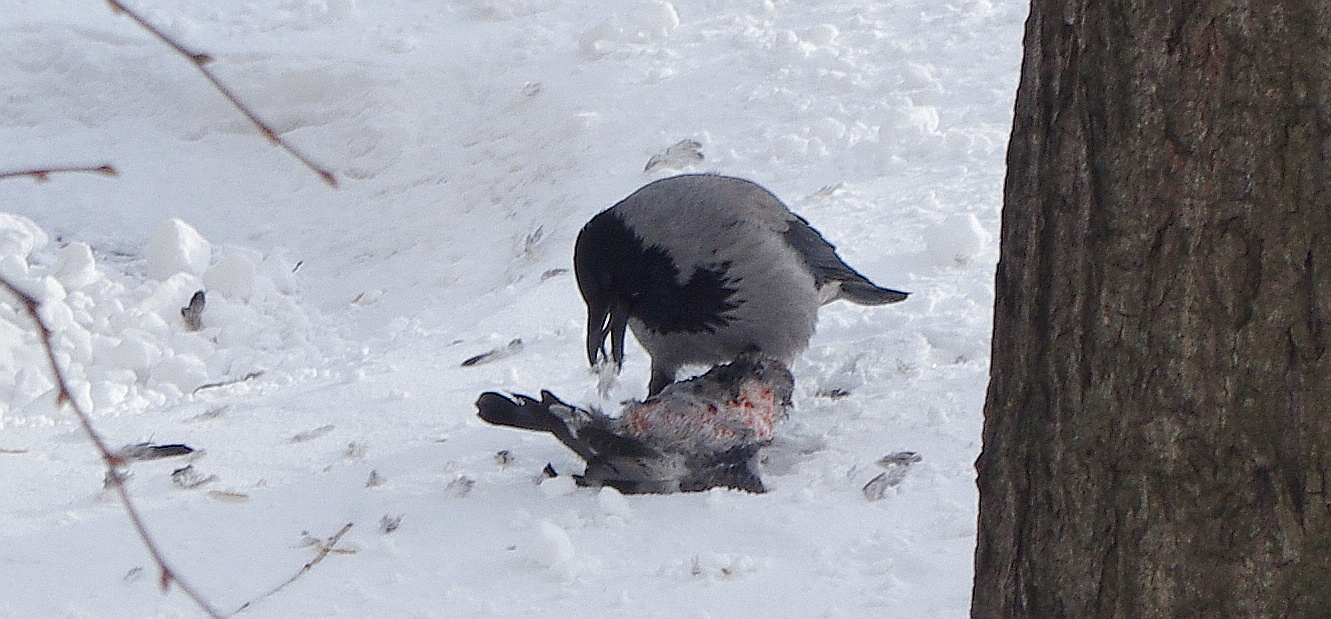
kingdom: Animalia
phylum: Chordata
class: Aves
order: Passeriformes
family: Corvidae
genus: Corvus
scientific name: Corvus cornix
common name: Hooded crow
